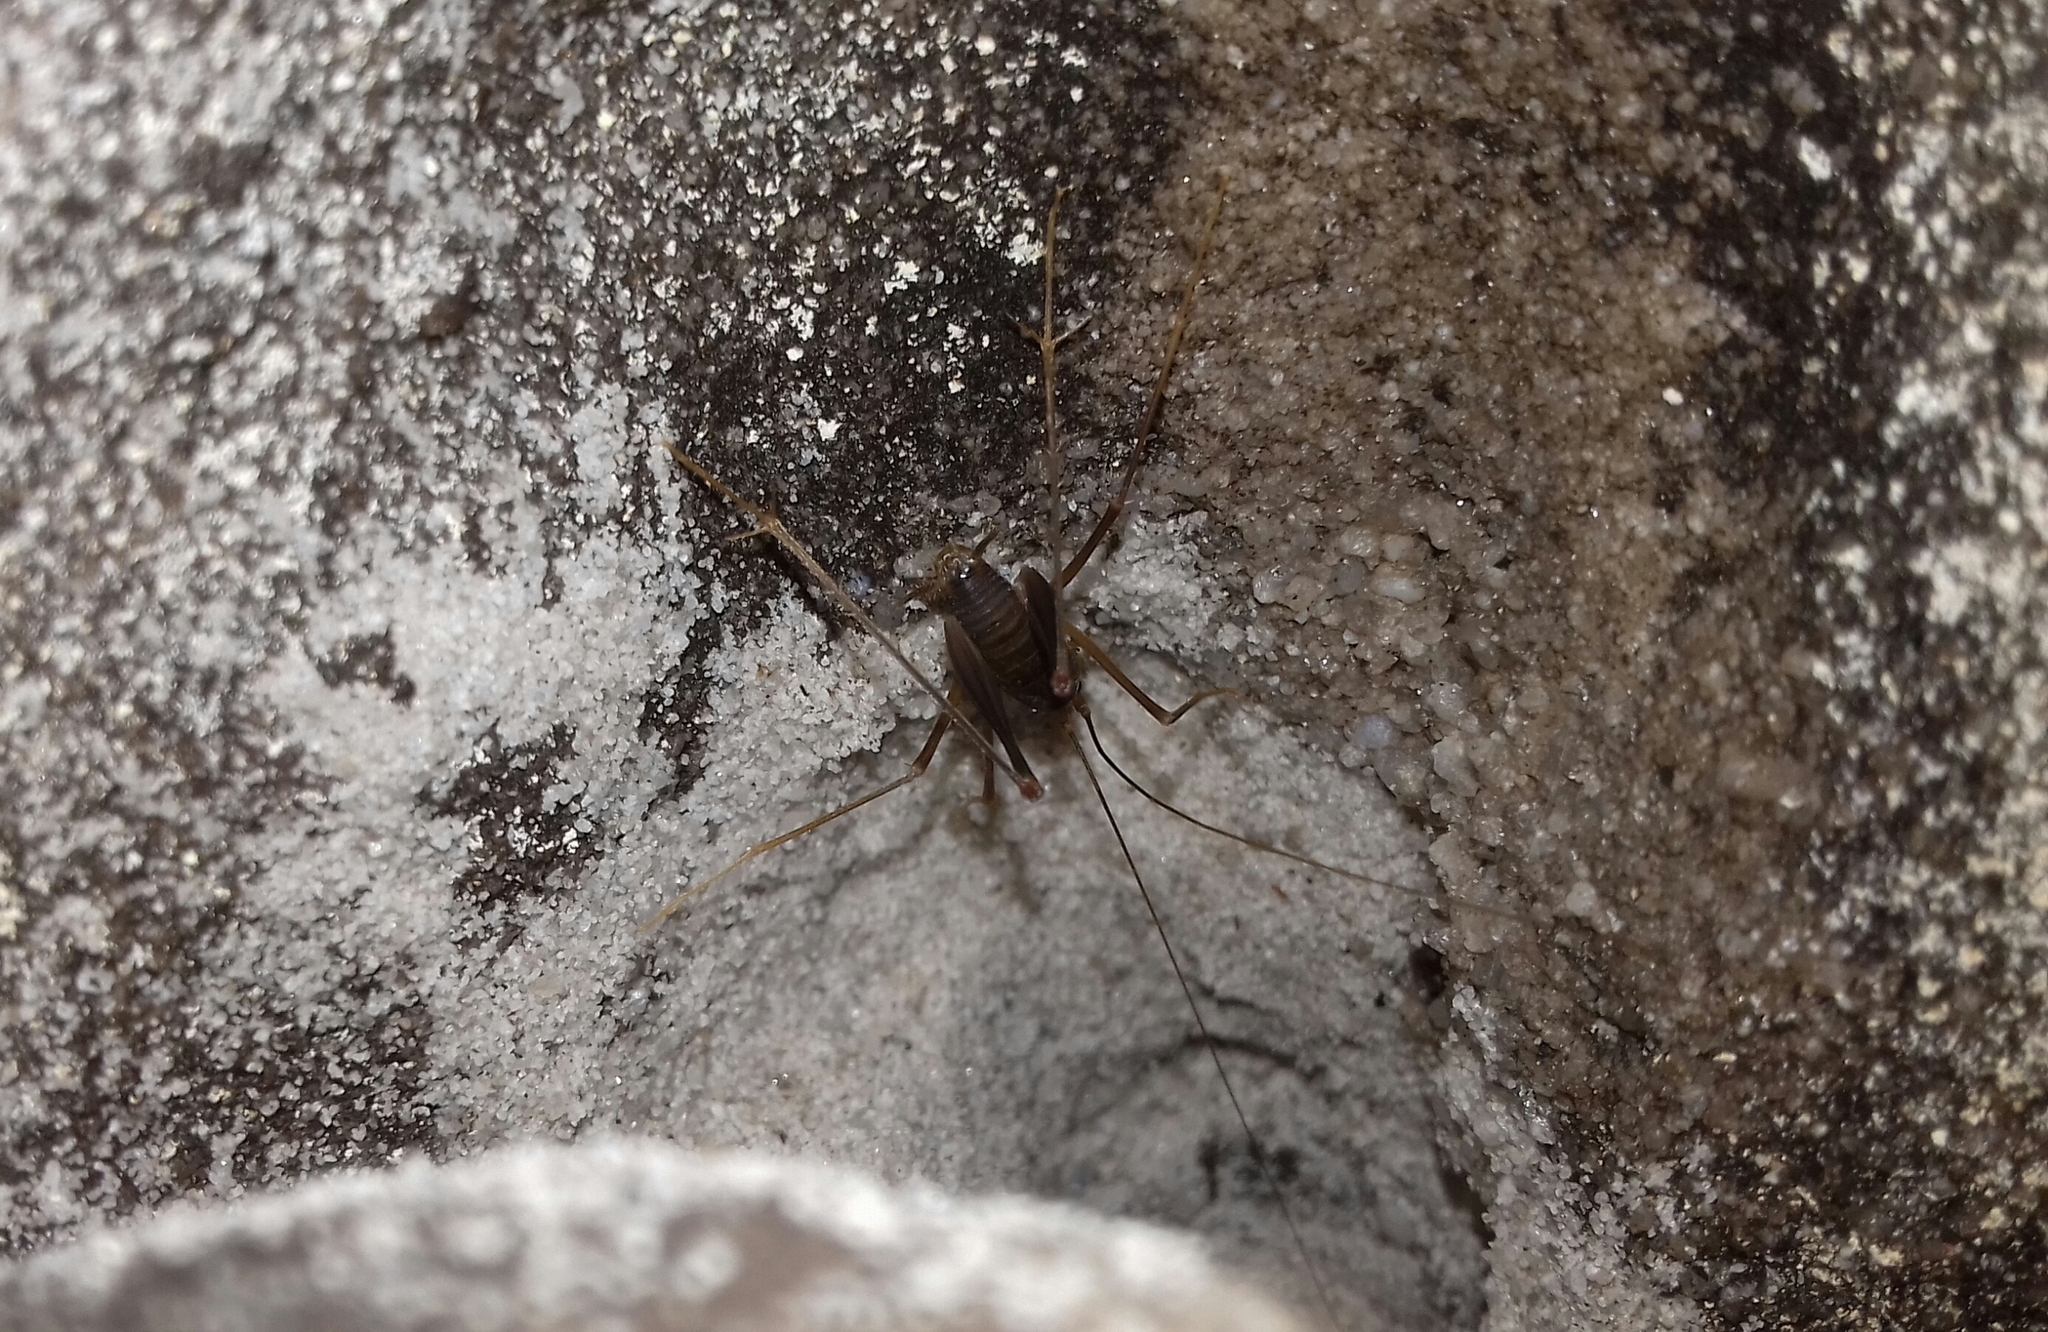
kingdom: Animalia
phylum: Arthropoda
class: Insecta
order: Orthoptera
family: Rhaphidophoridae
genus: Spelaeiacris
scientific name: Spelaeiacris tabulae
